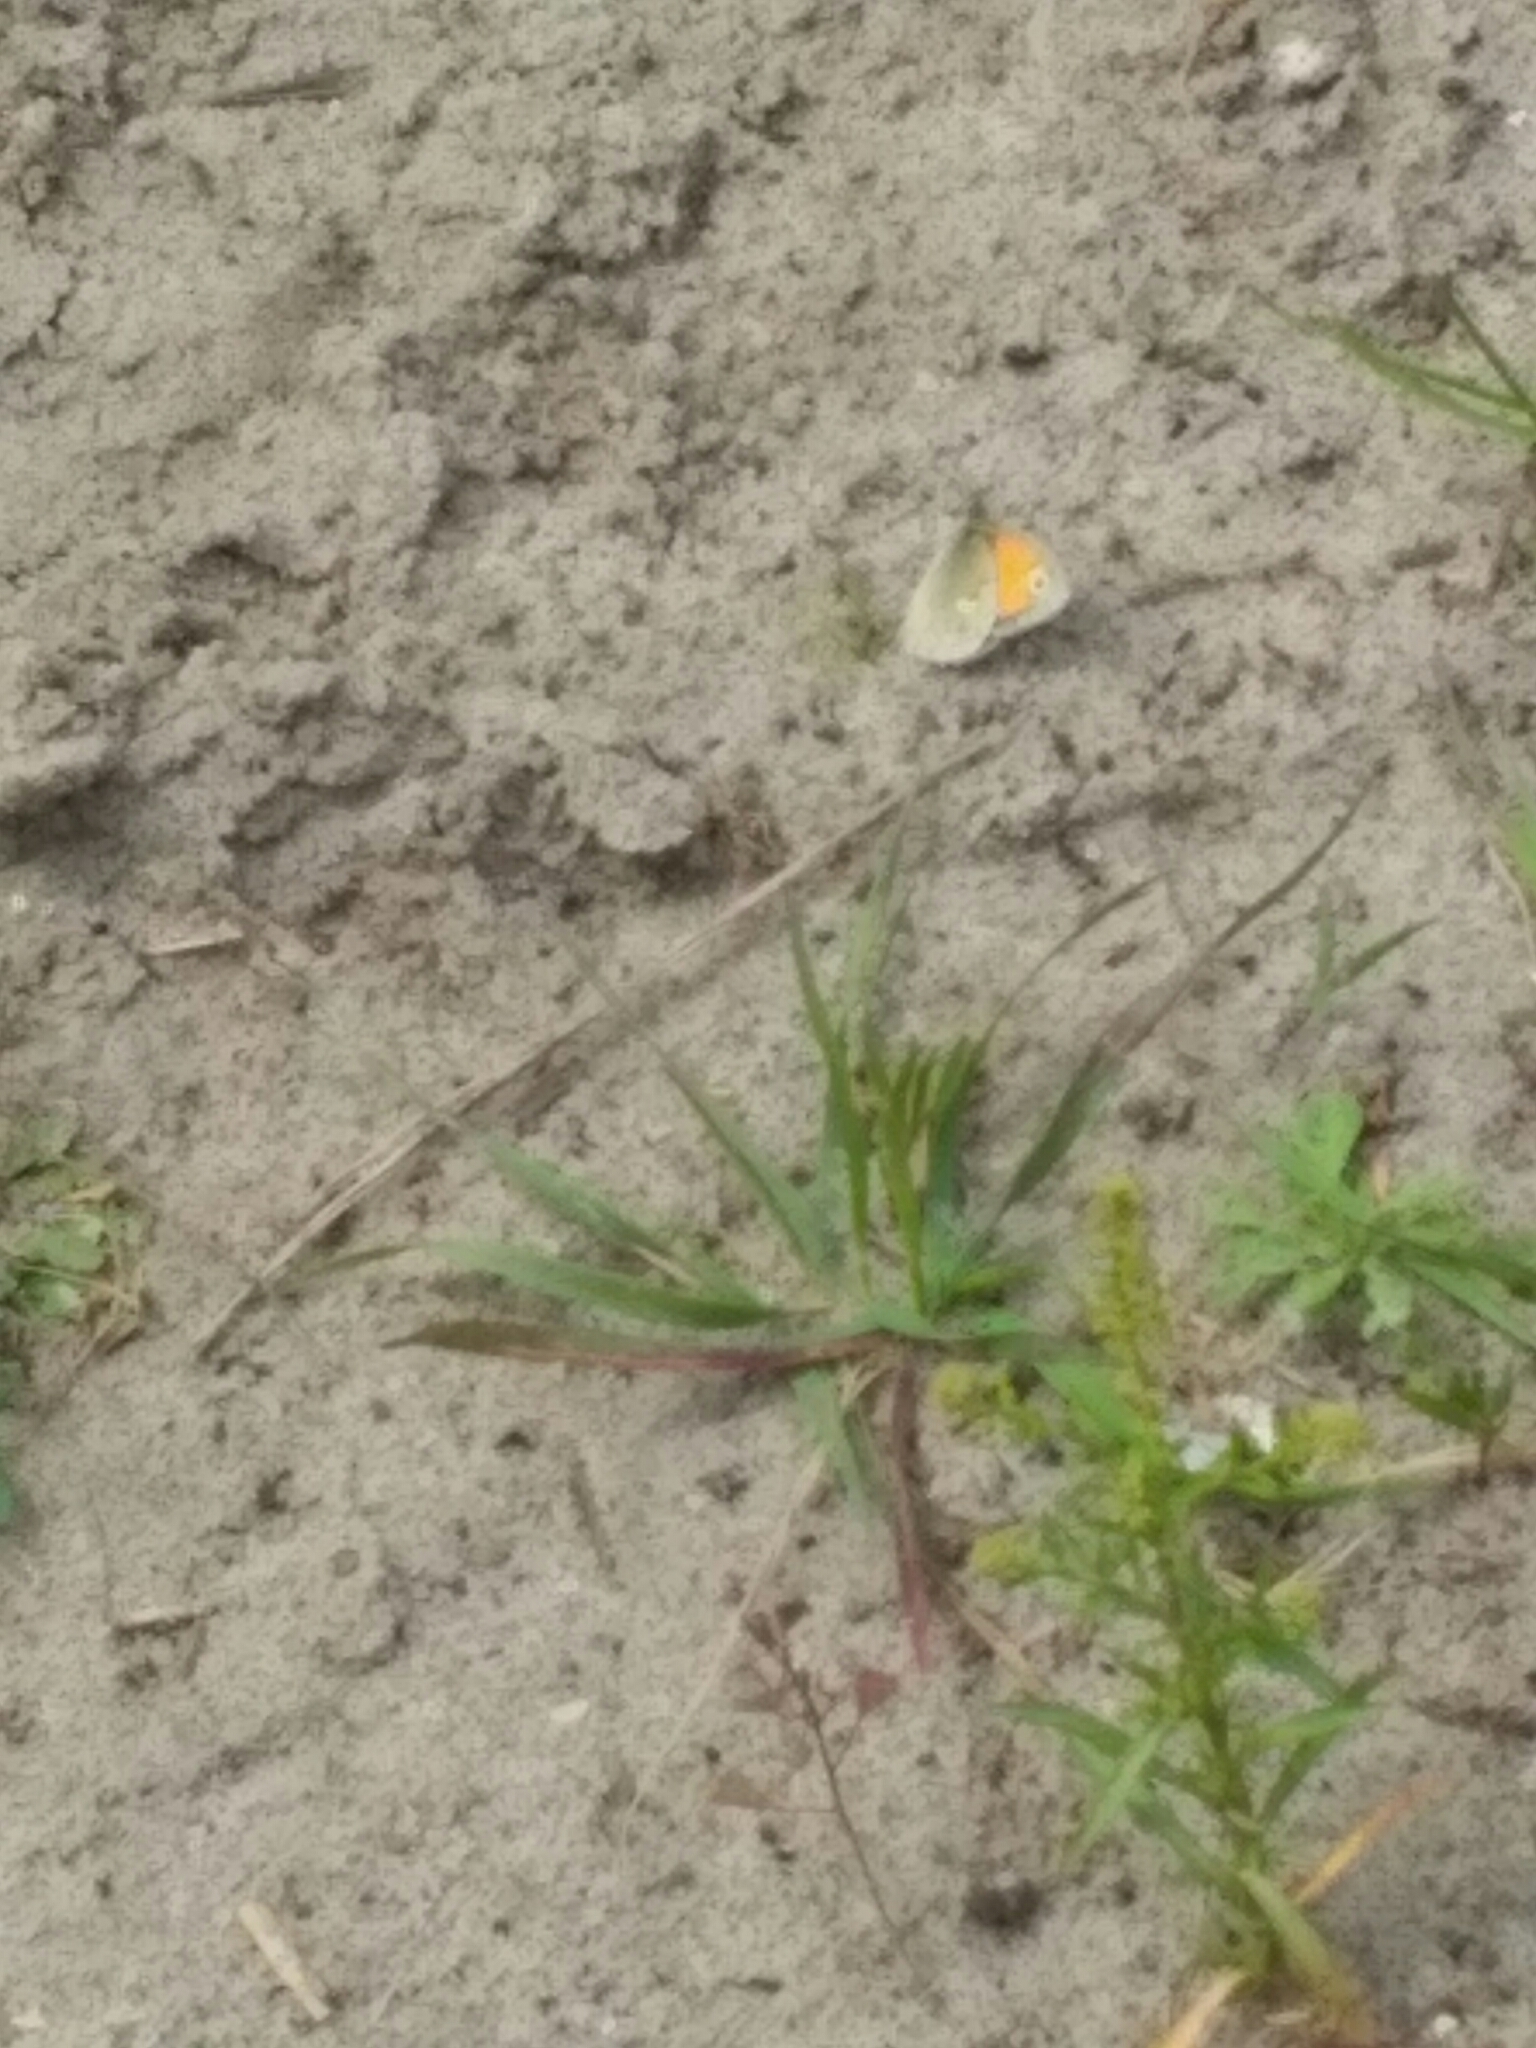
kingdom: Animalia
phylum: Arthropoda
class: Insecta
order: Lepidoptera
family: Nymphalidae
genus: Coenonympha
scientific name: Coenonympha pamphilus
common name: Small heath
